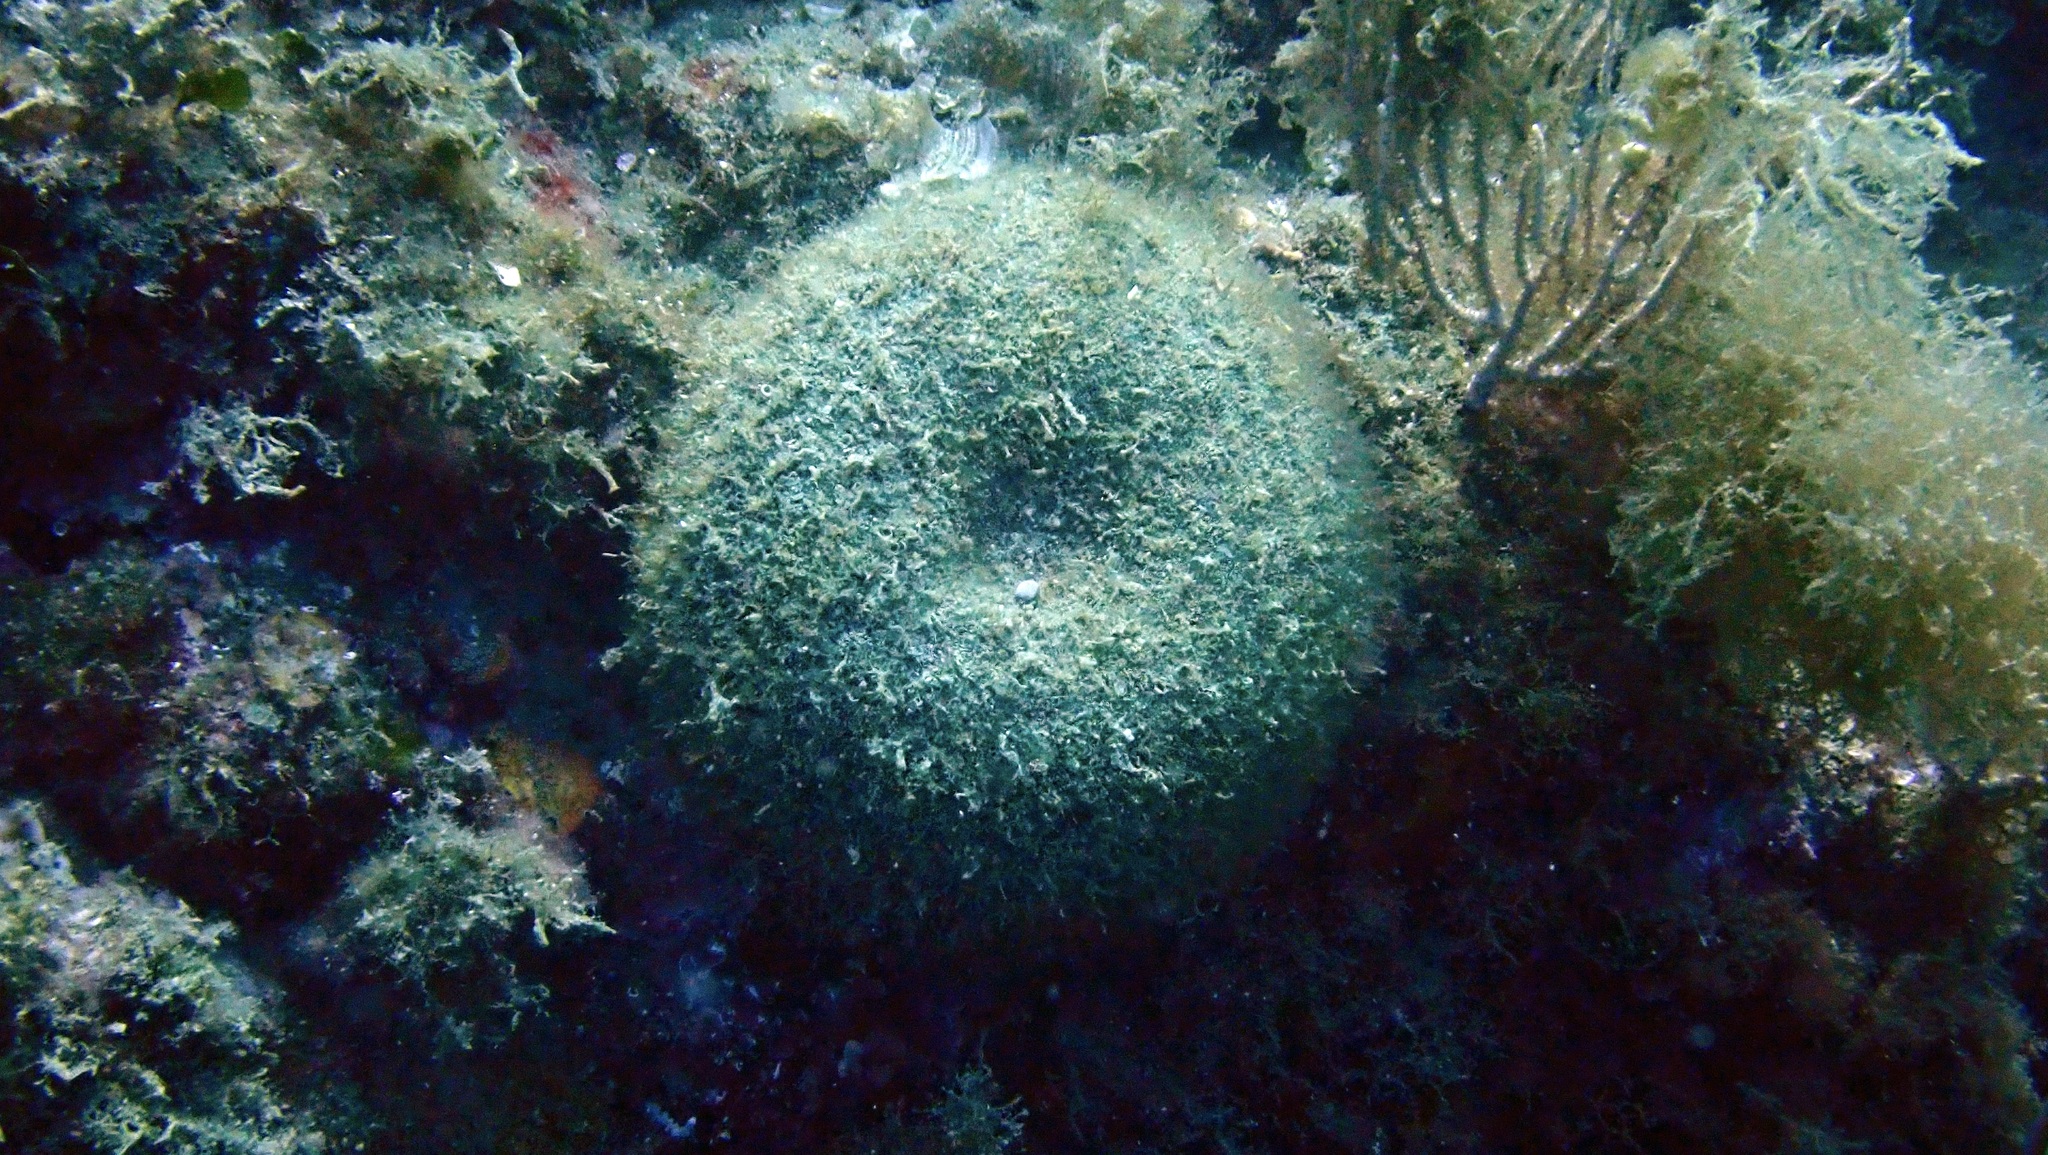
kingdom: Plantae
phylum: Chlorophyta
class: Ulvophyceae
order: Bryopsidales
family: Codiaceae
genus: Codium
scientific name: Codium bursa
